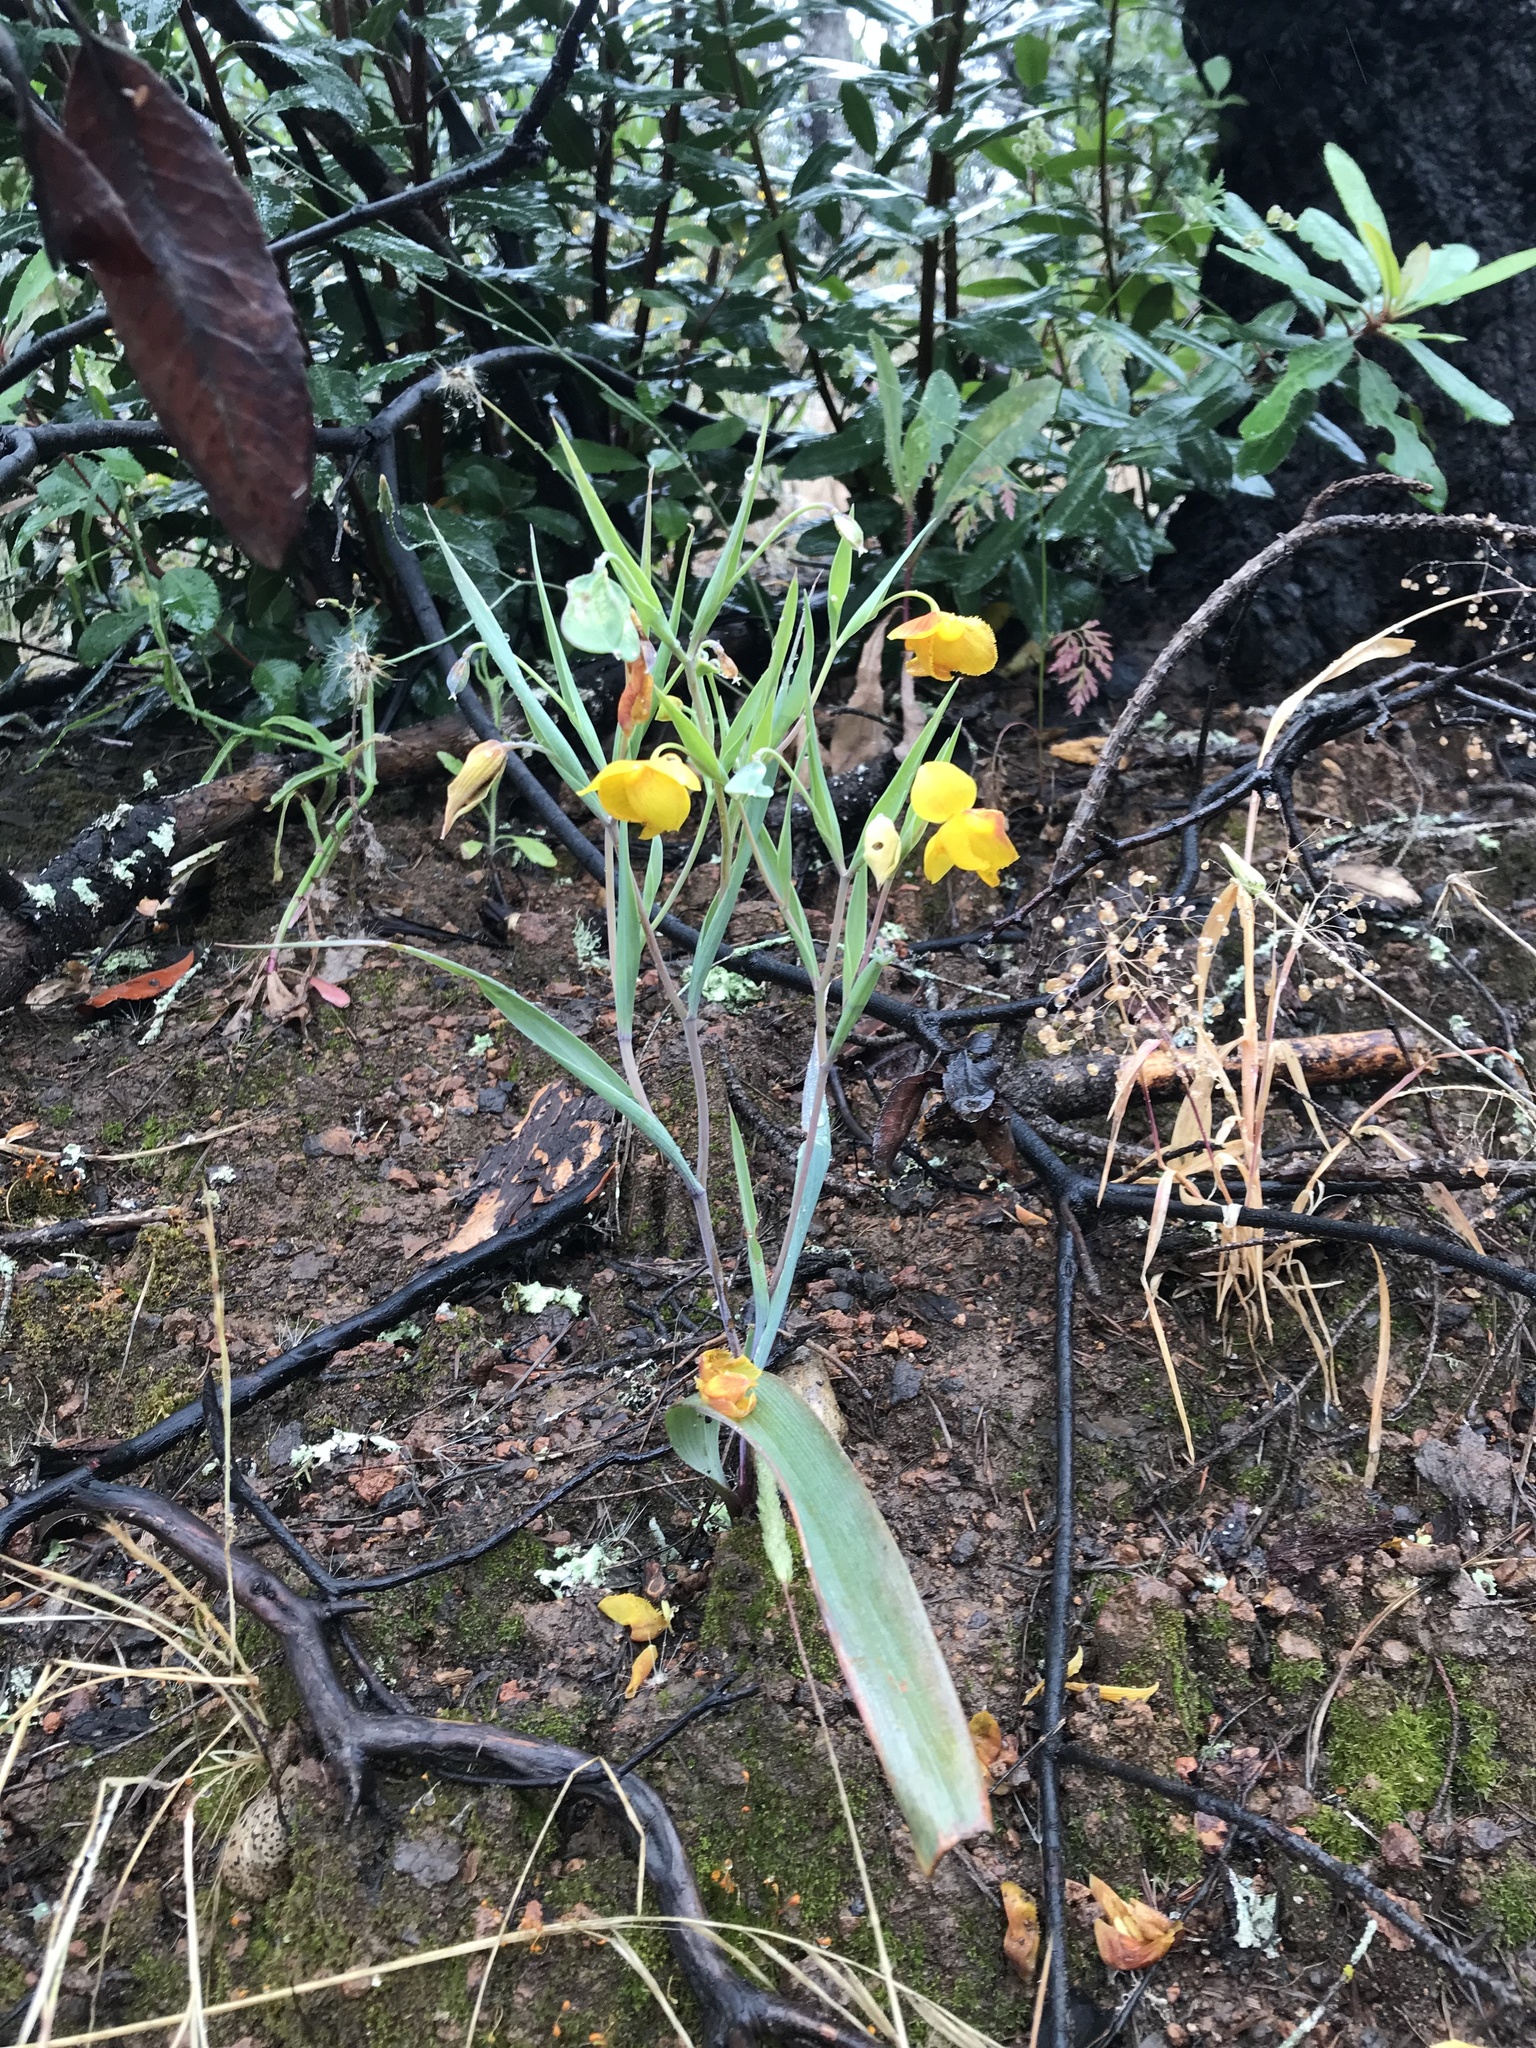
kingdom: Plantae
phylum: Tracheophyta
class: Liliopsida
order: Liliales
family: Liliaceae
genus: Calochortus
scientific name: Calochortus amabilis
